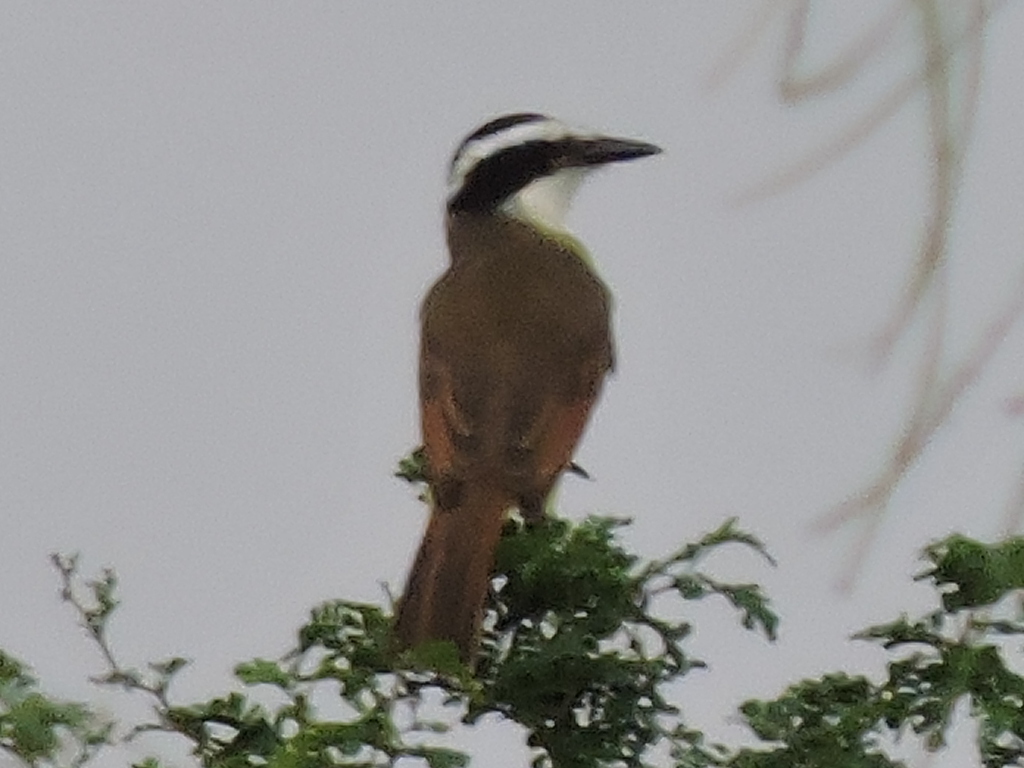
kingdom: Animalia
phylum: Chordata
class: Aves
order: Passeriformes
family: Tyrannidae
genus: Pitangus
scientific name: Pitangus sulphuratus
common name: Great kiskadee
